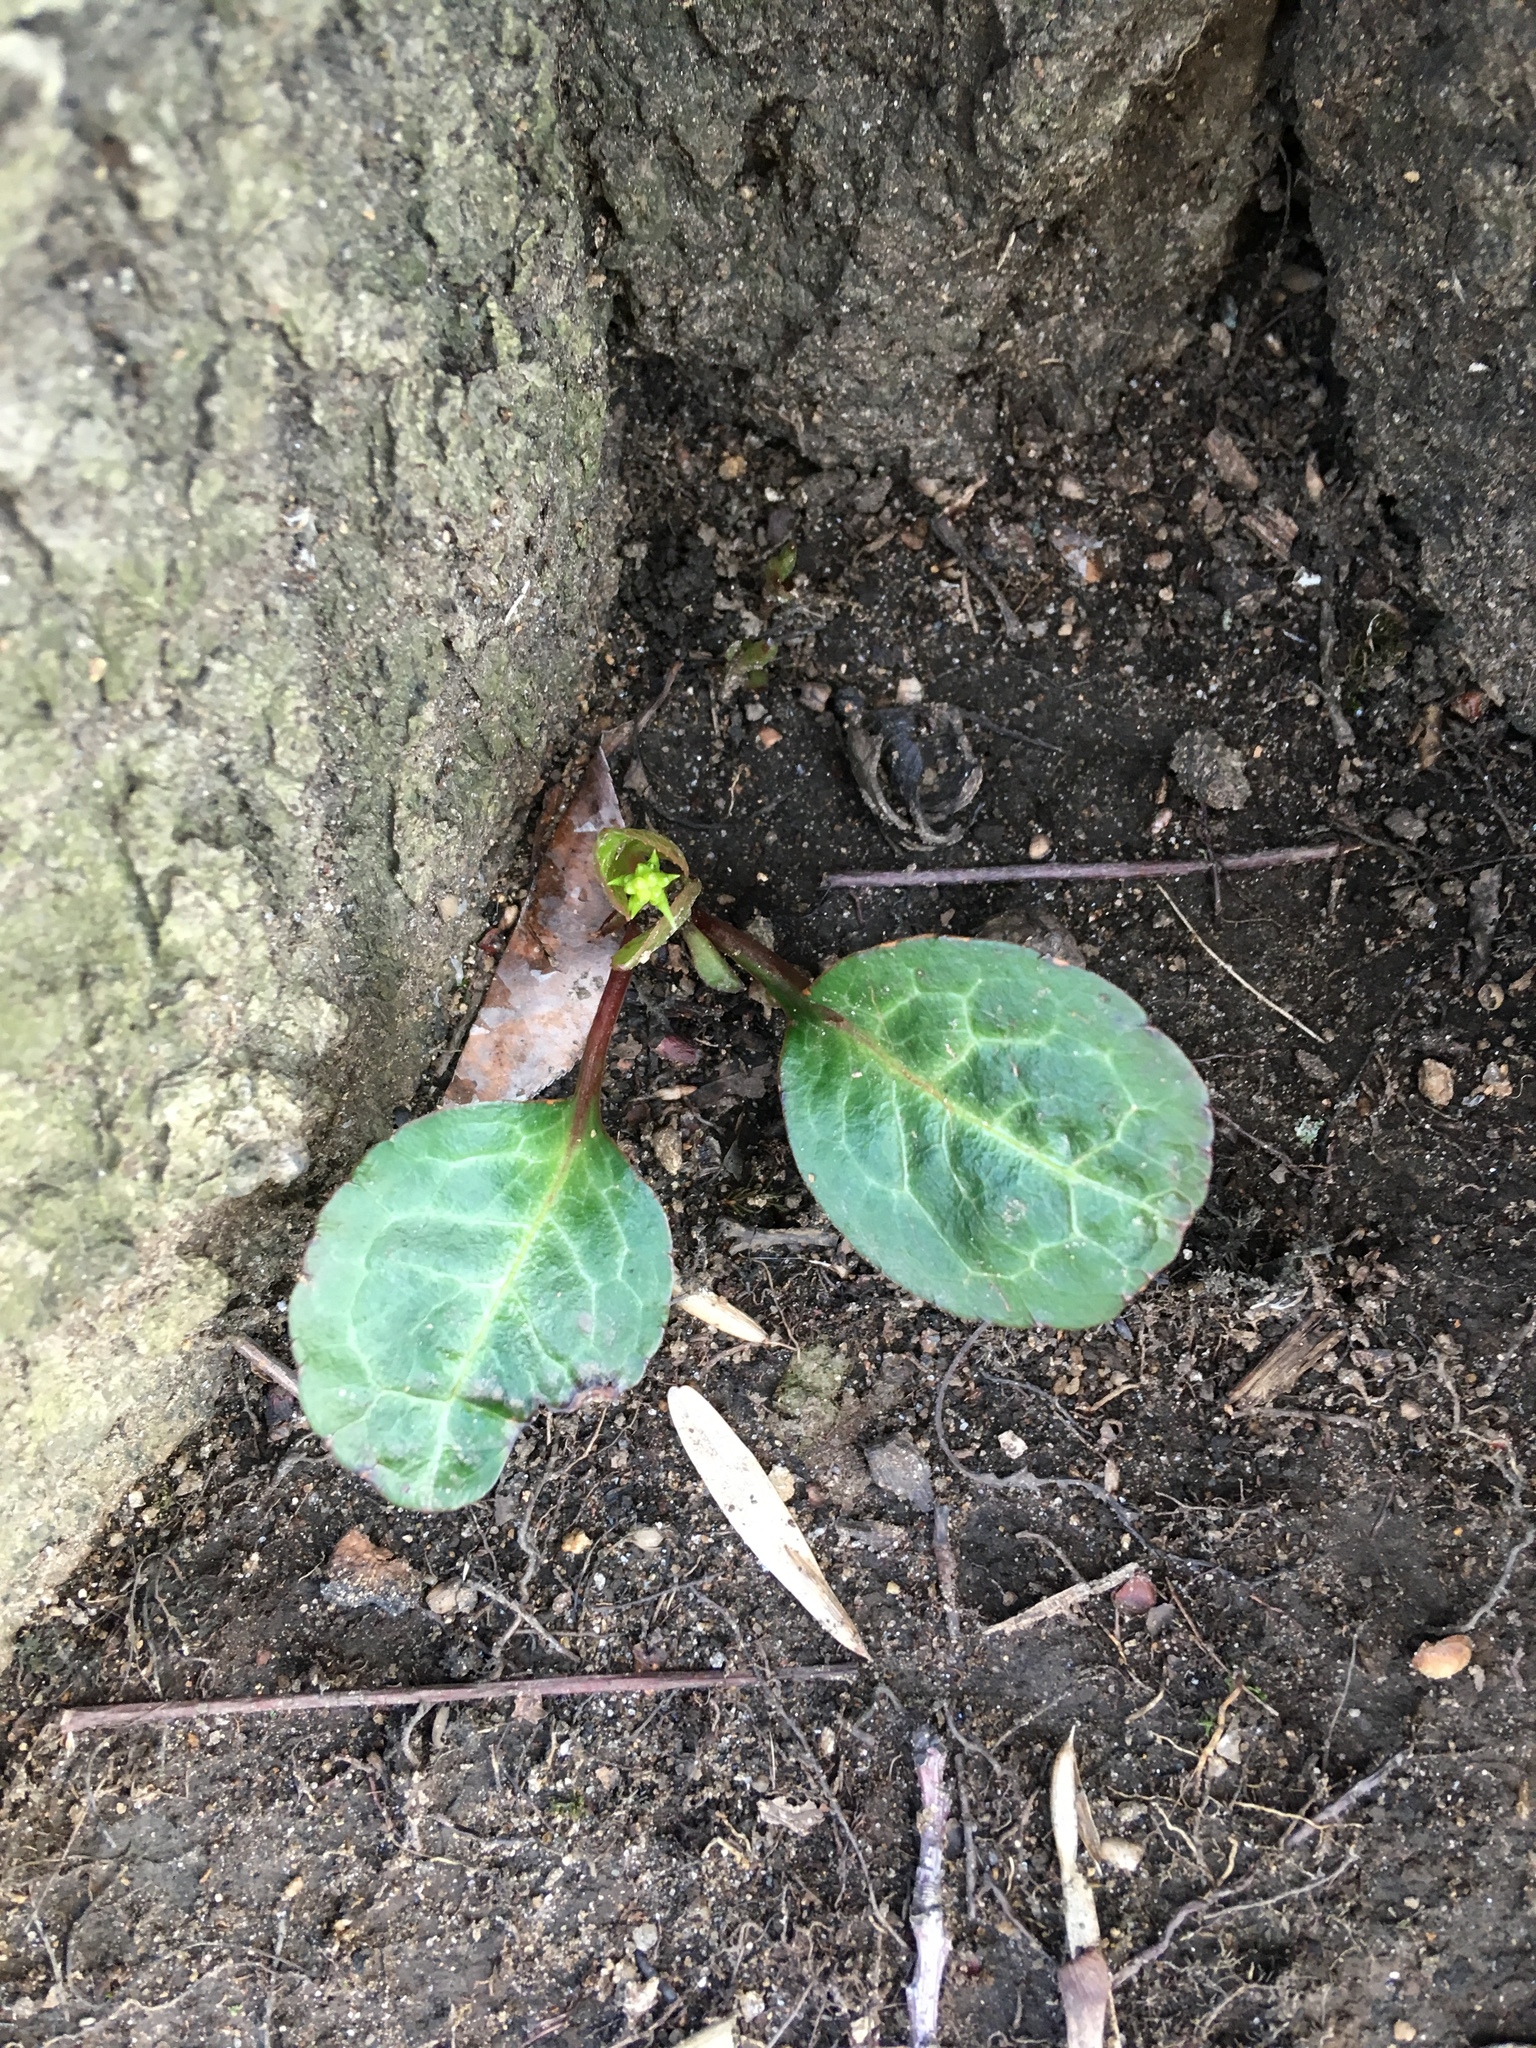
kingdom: Plantae
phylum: Tracheophyta
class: Magnoliopsida
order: Ericales
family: Ericaceae
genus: Pyrola
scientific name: Pyrola americana
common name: American wintergreen
